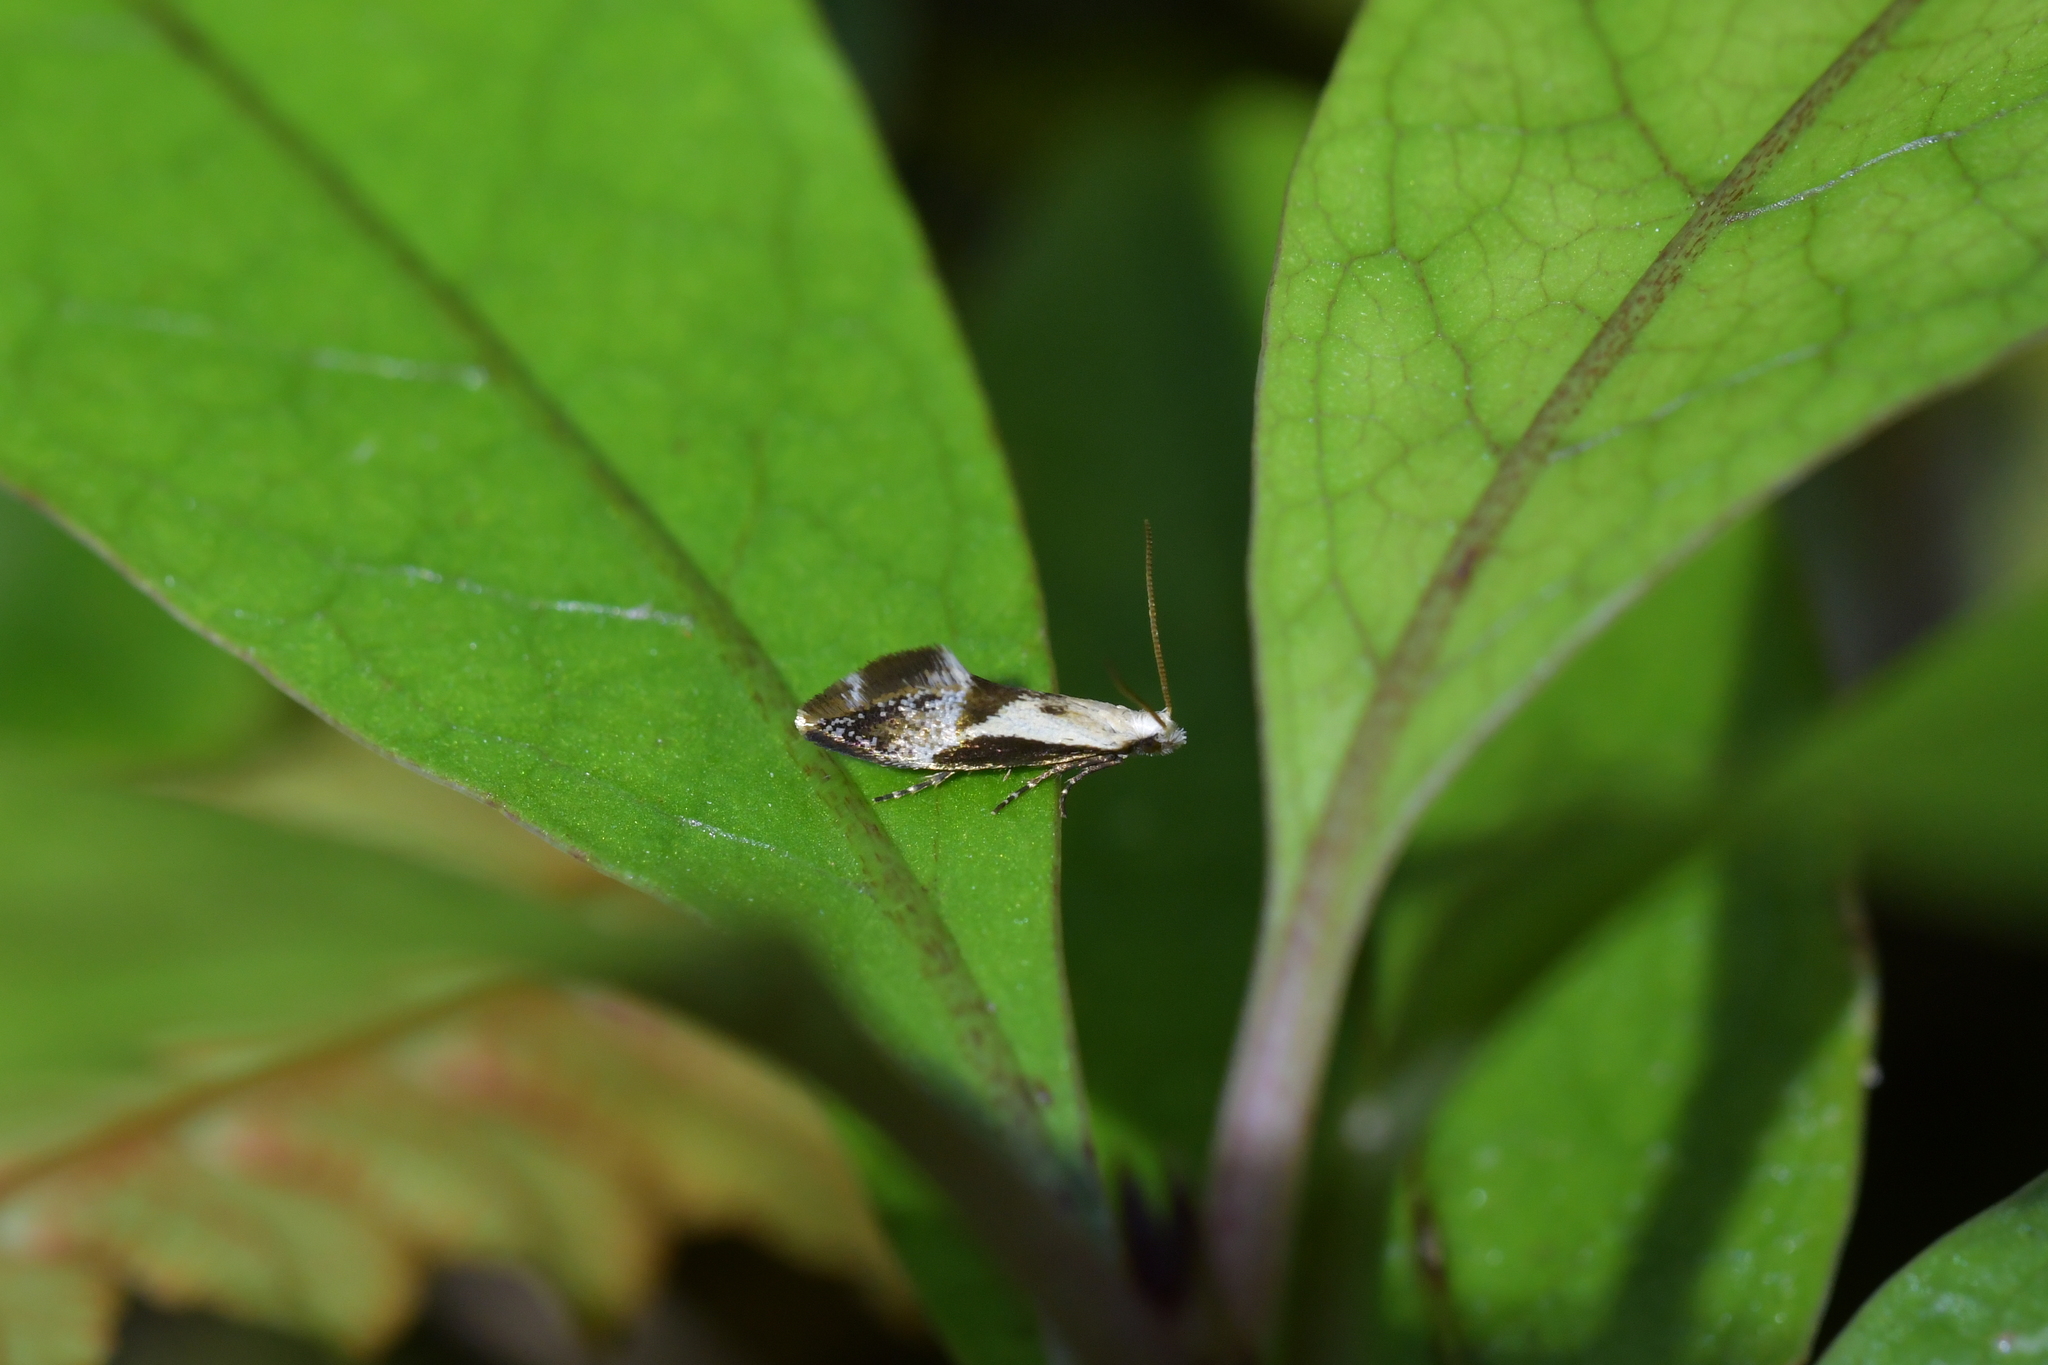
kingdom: Animalia
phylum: Arthropoda
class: Insecta
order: Lepidoptera
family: Mnesarchaeidae
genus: Mnesarchella
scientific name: Mnesarchella fusilella
